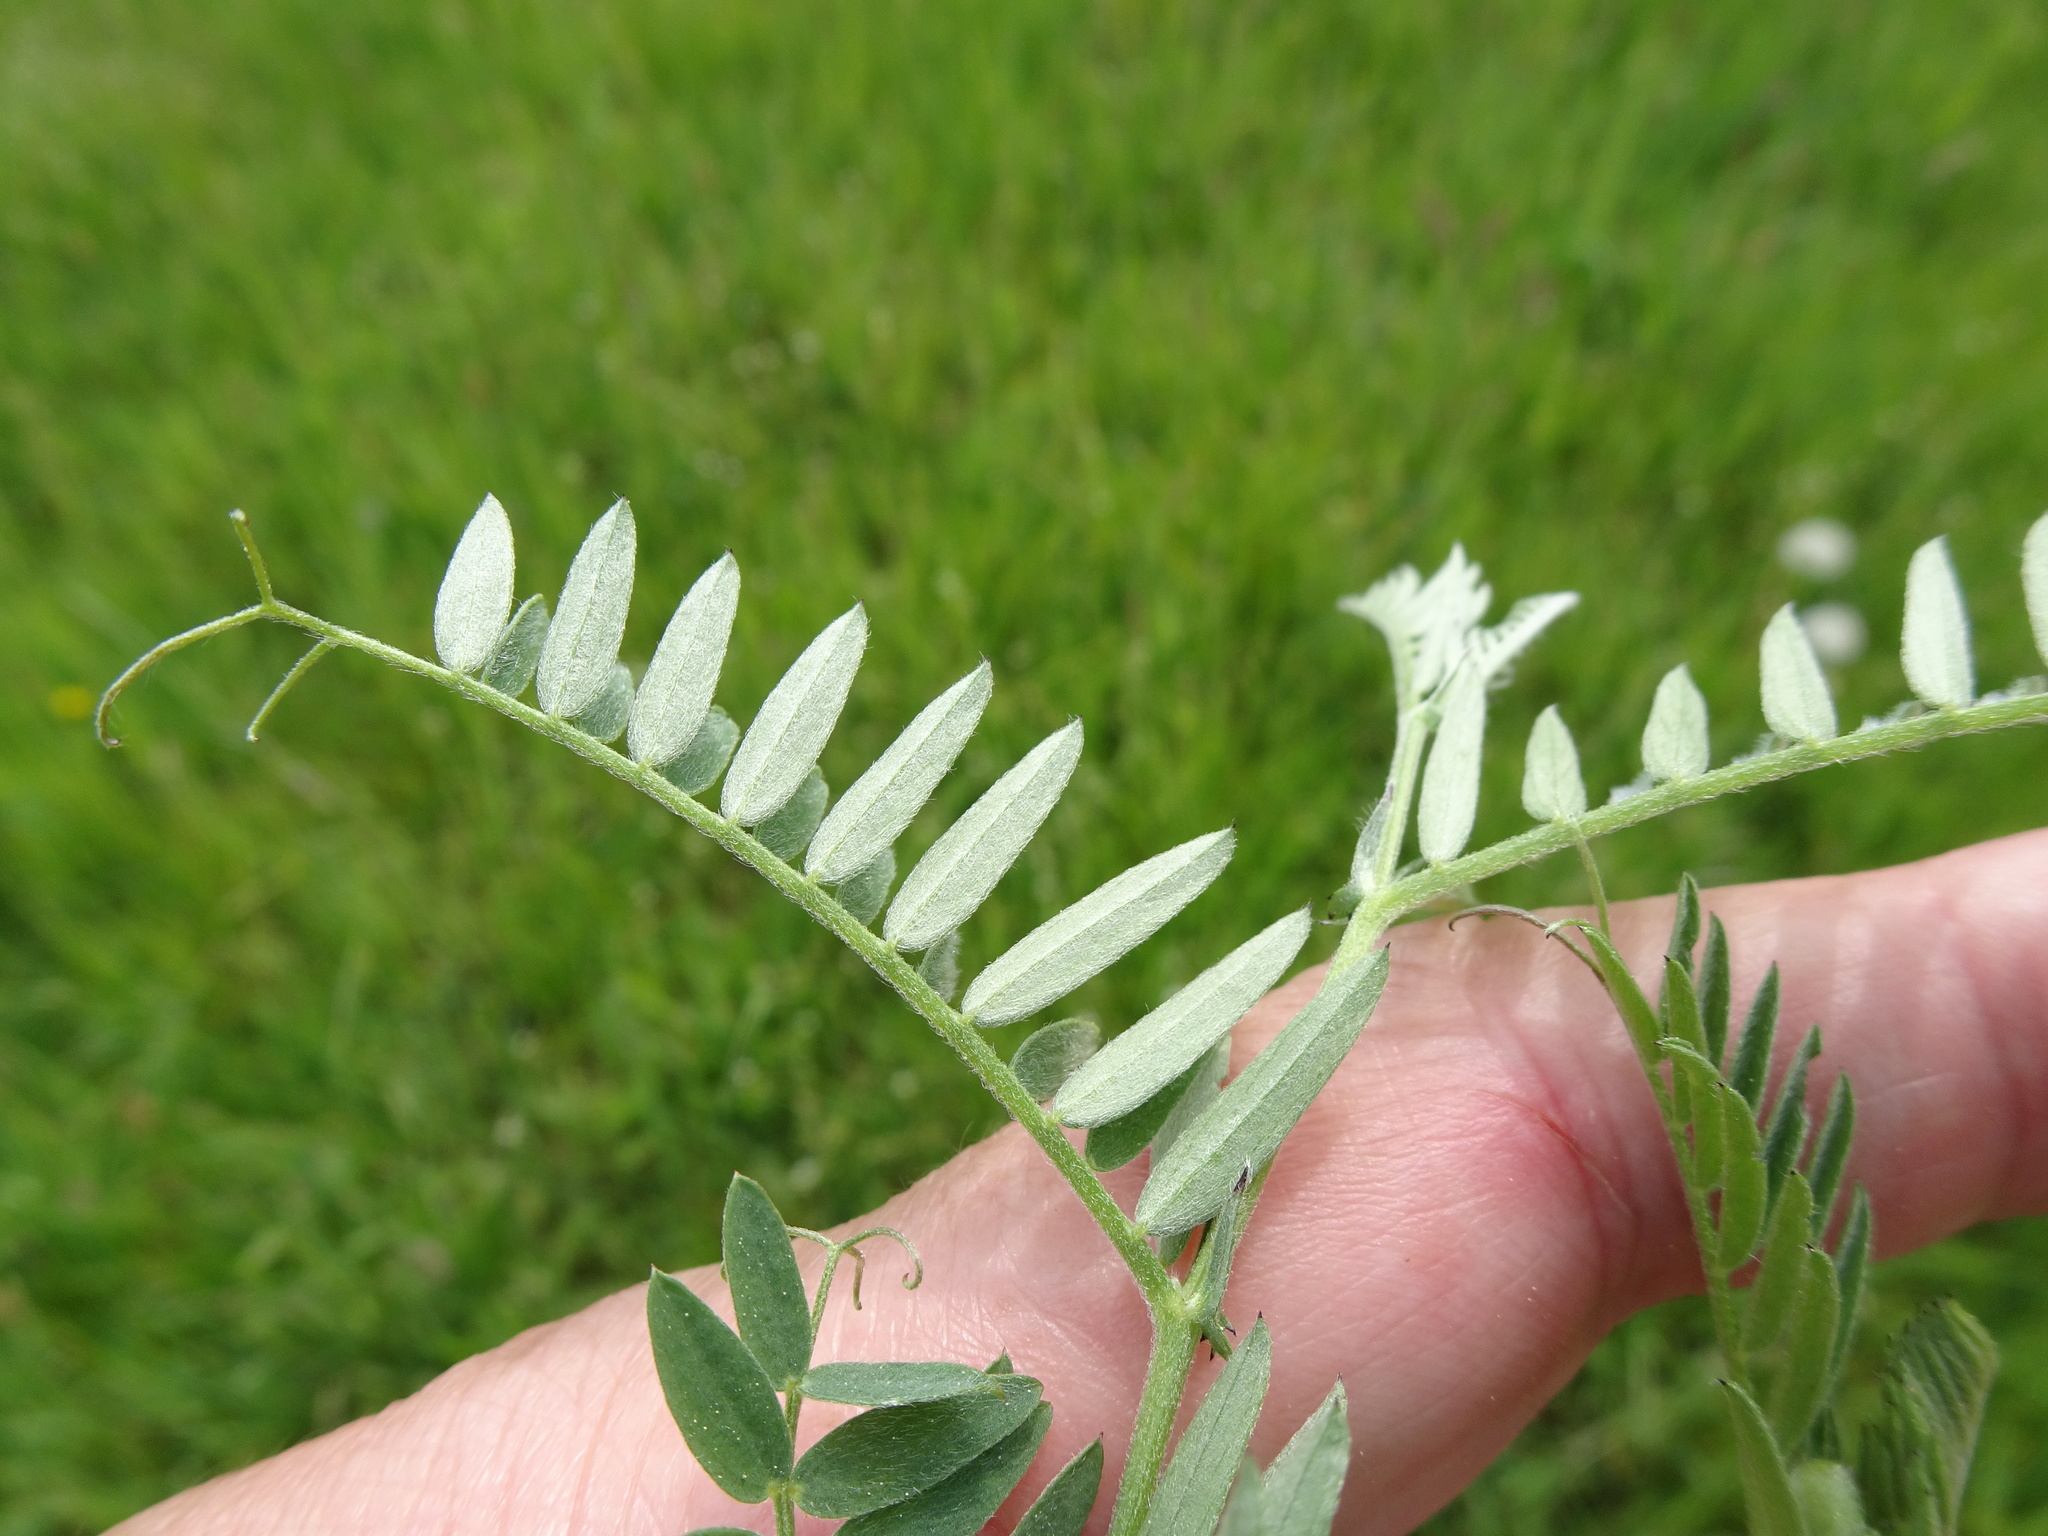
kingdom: Plantae
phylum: Tracheophyta
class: Magnoliopsida
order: Fabales
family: Fabaceae
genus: Vicia
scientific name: Vicia villosa
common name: Fodder vetch
